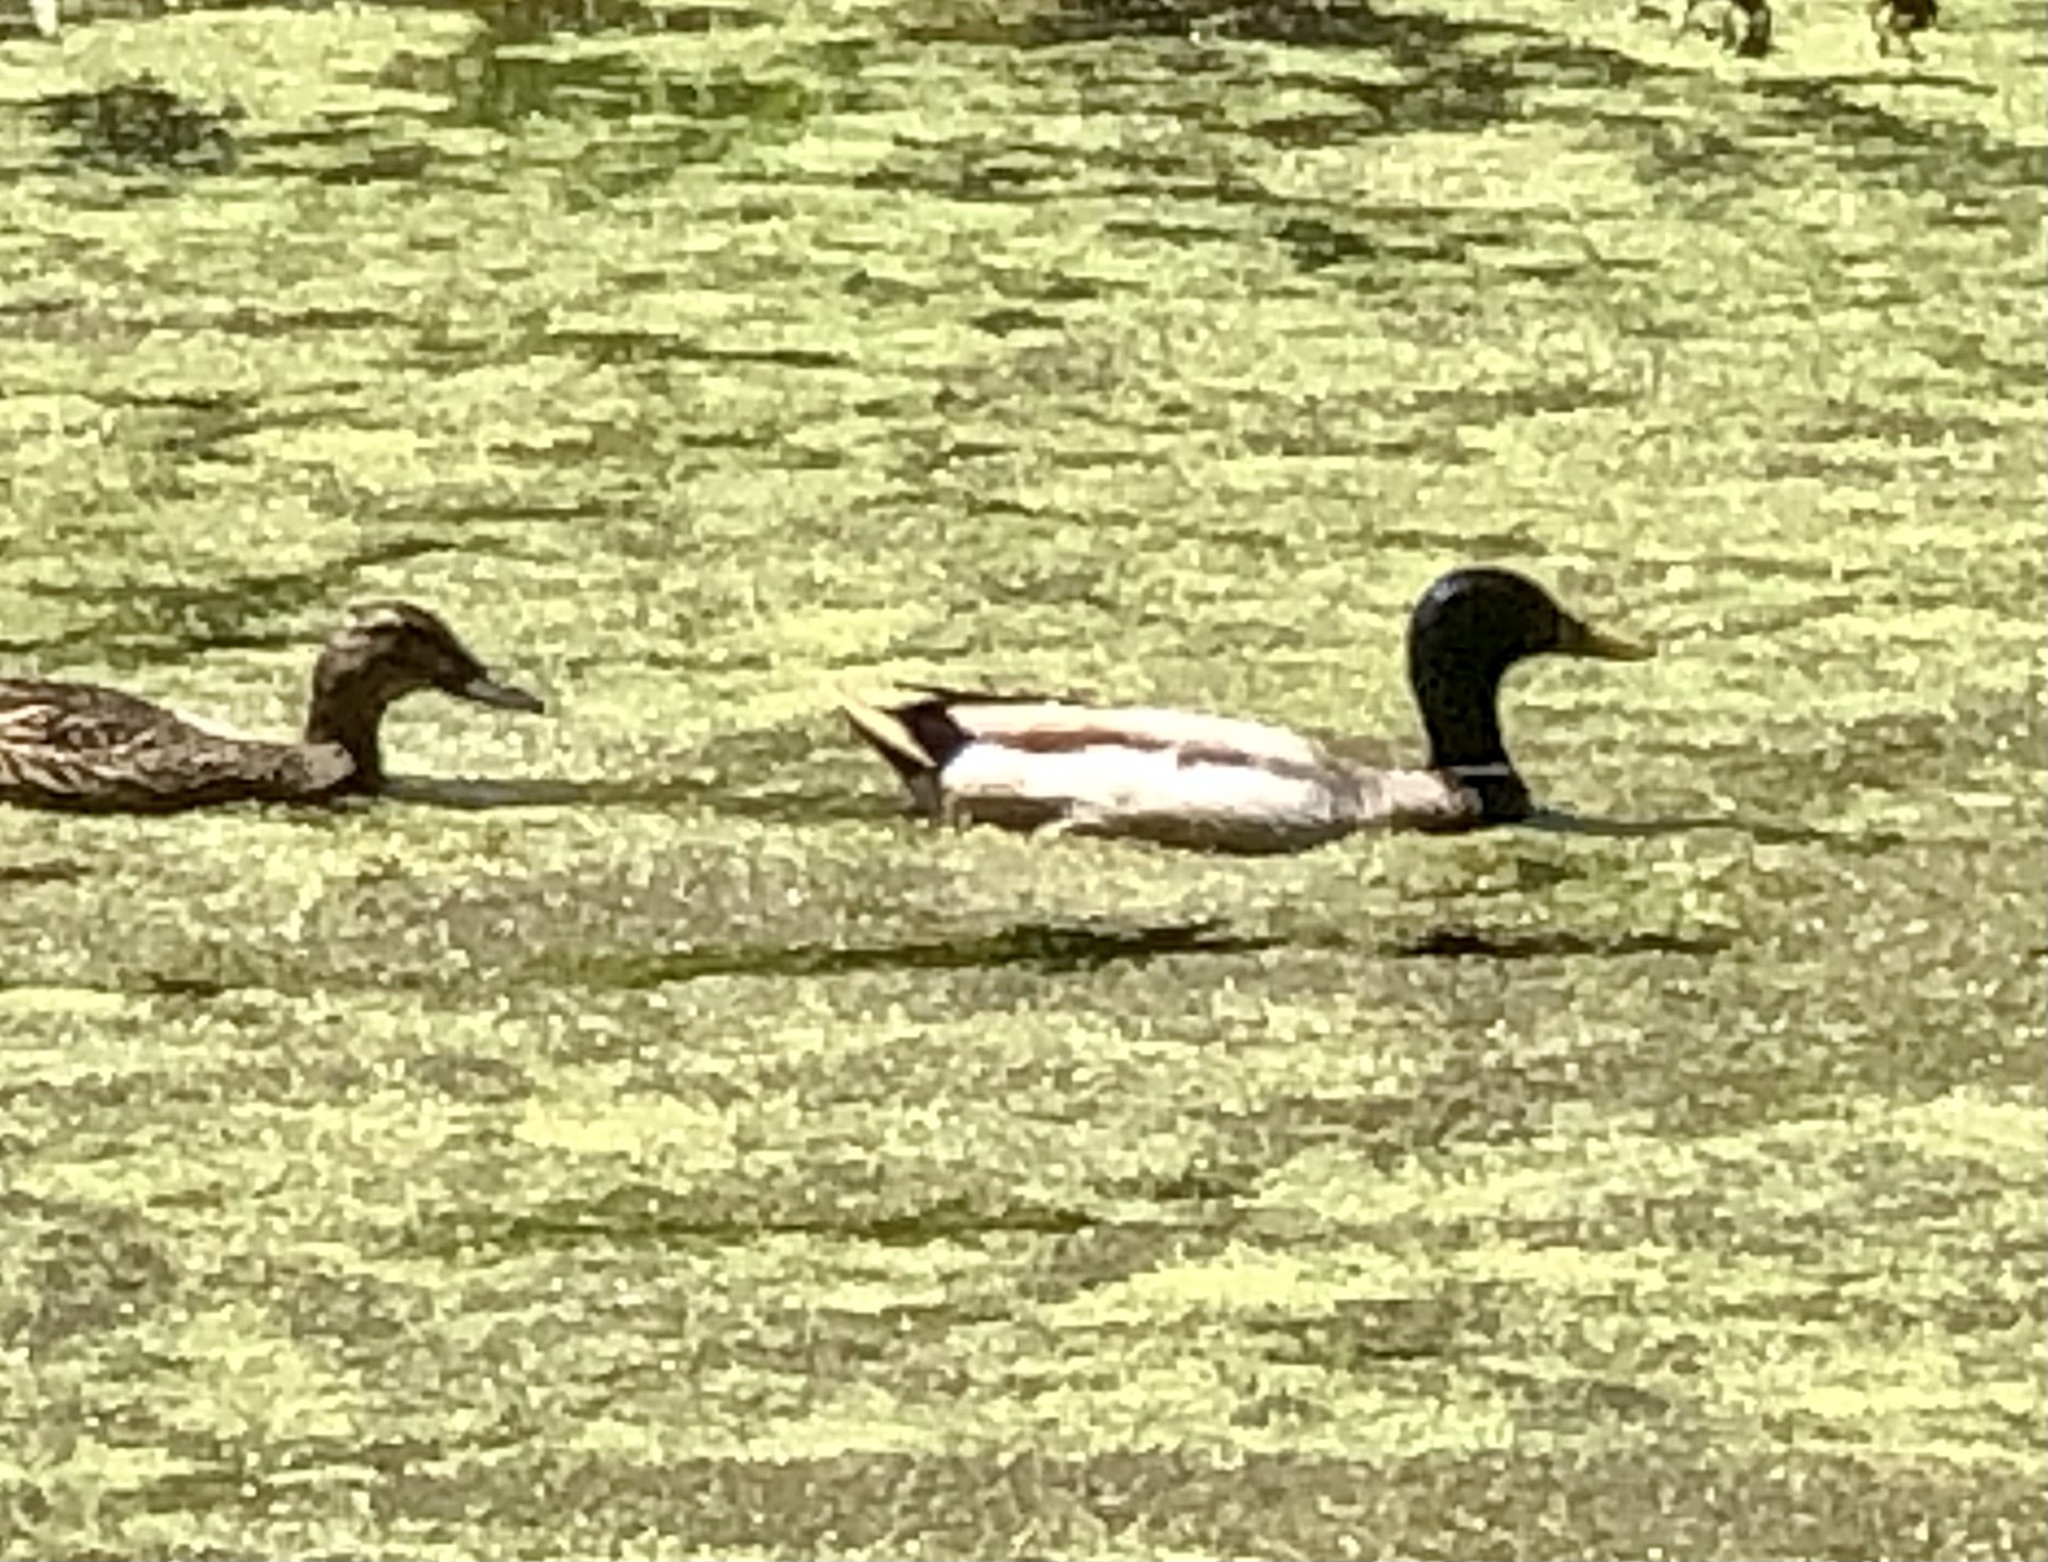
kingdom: Animalia
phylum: Chordata
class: Aves
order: Anseriformes
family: Anatidae
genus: Anas
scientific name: Anas platyrhynchos
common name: Mallard
